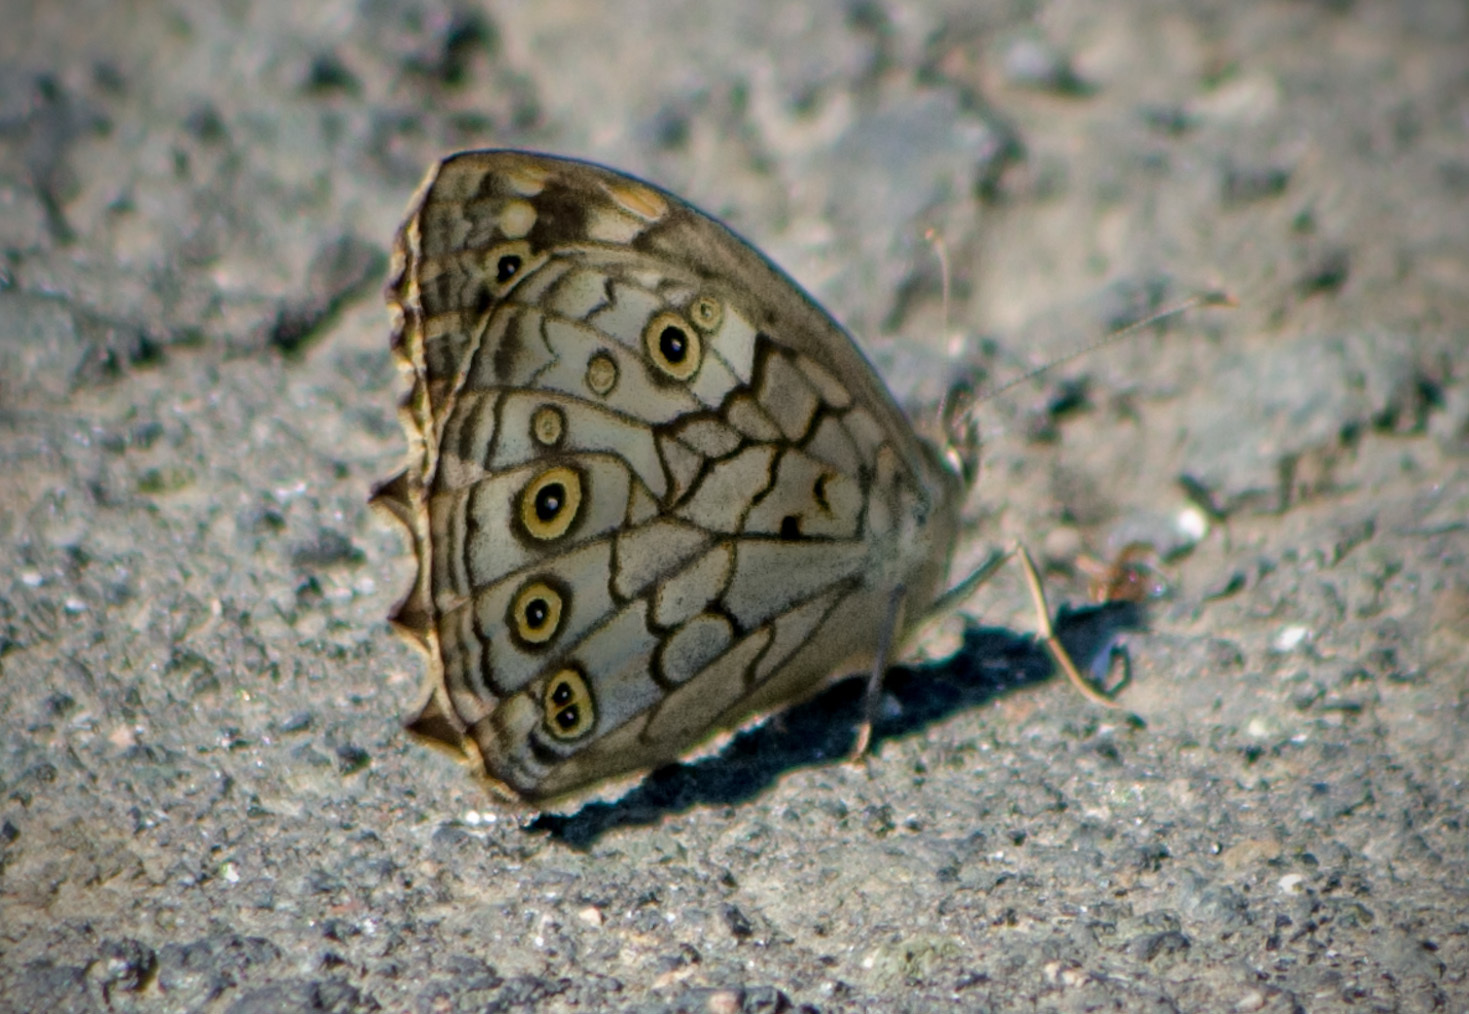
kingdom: Animalia
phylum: Arthropoda
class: Insecta
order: Lepidoptera
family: Nymphalidae
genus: Kirinia
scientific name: Kirinia roxelana
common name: Lattice brown
